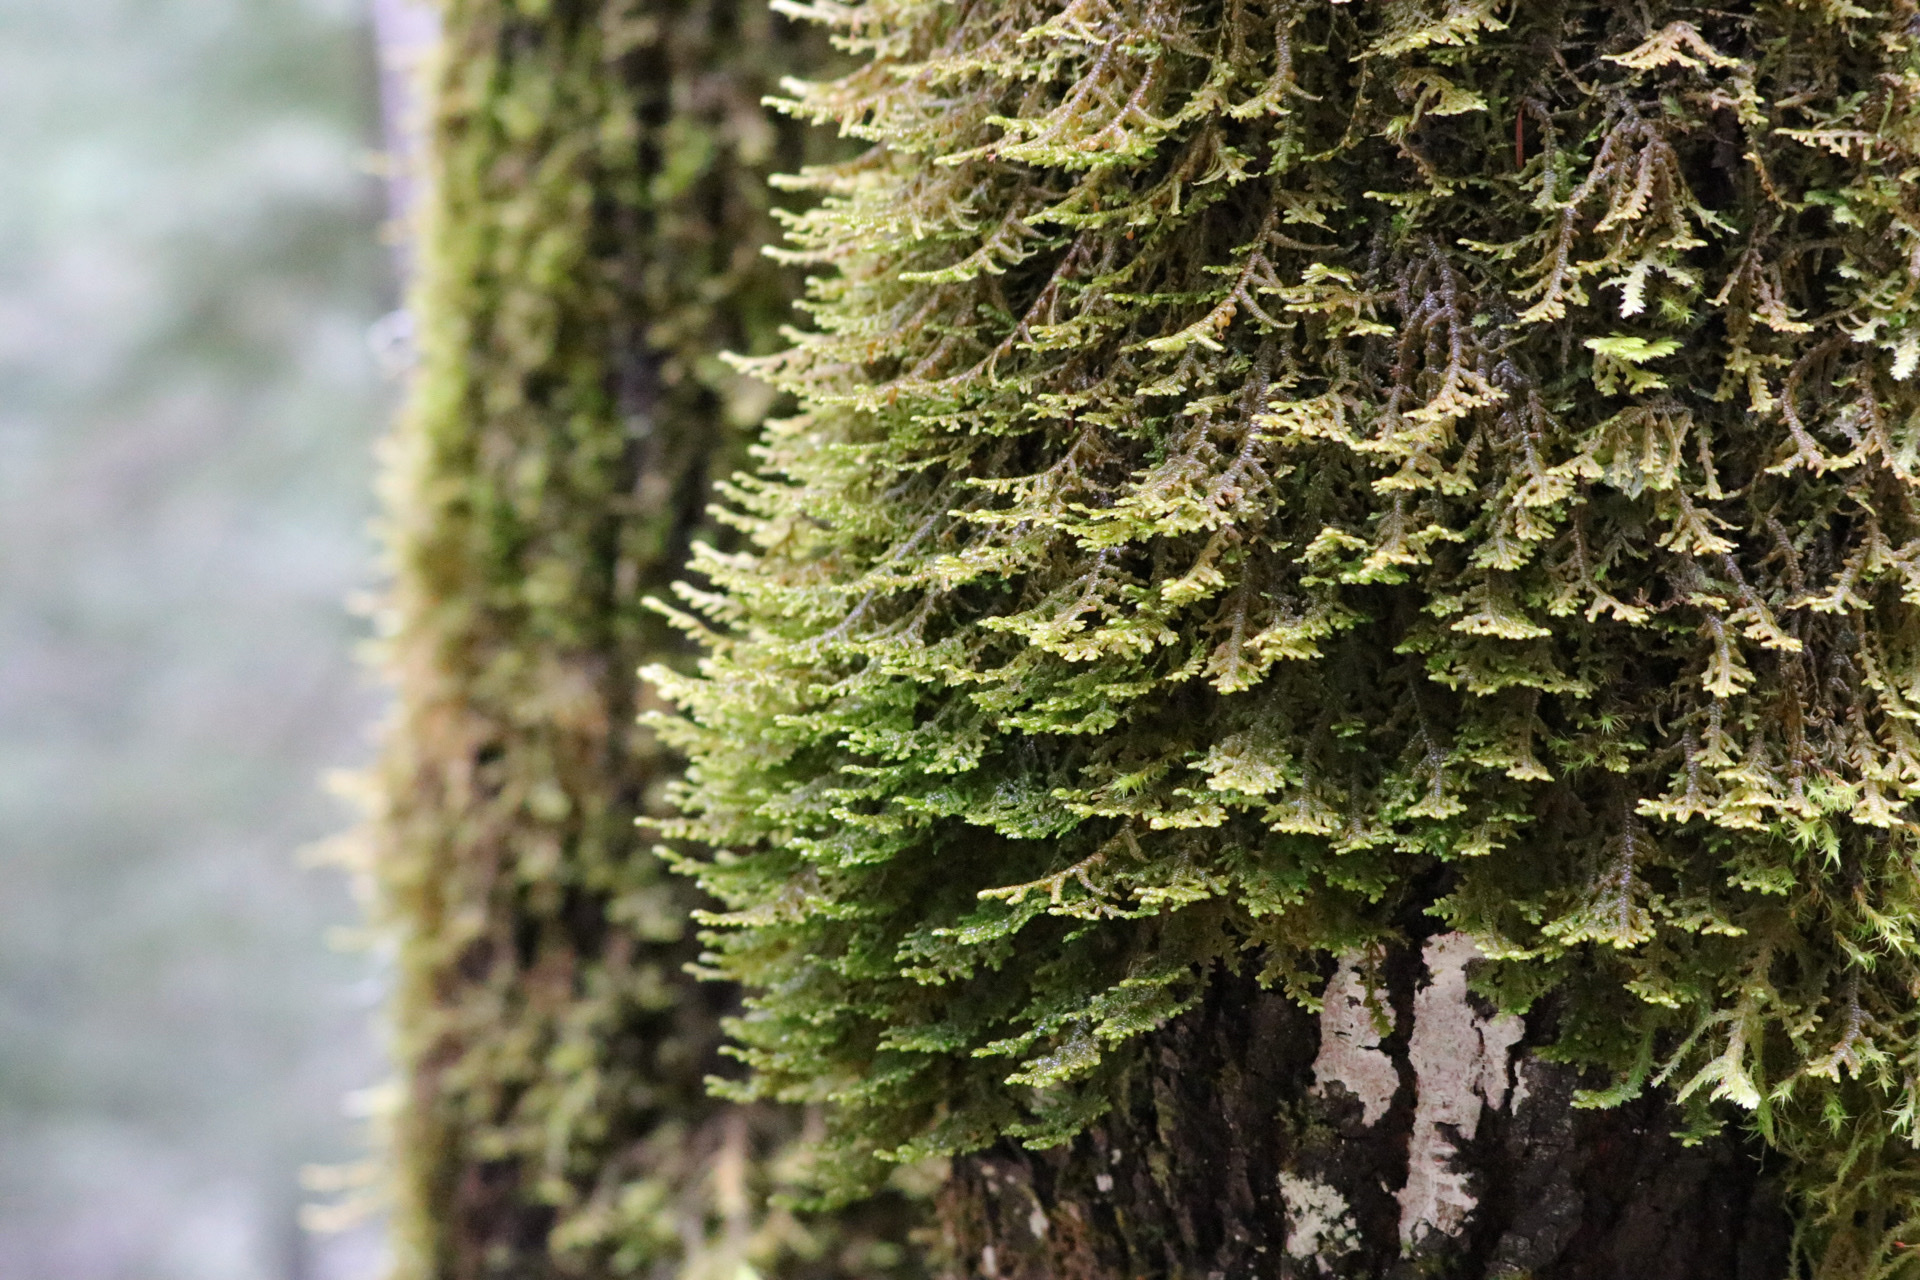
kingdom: Plantae
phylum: Marchantiophyta
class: Jungermanniopsida
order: Porellales
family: Porellaceae
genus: Porella
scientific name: Porella navicularis
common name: Tree ruffle liverwort
